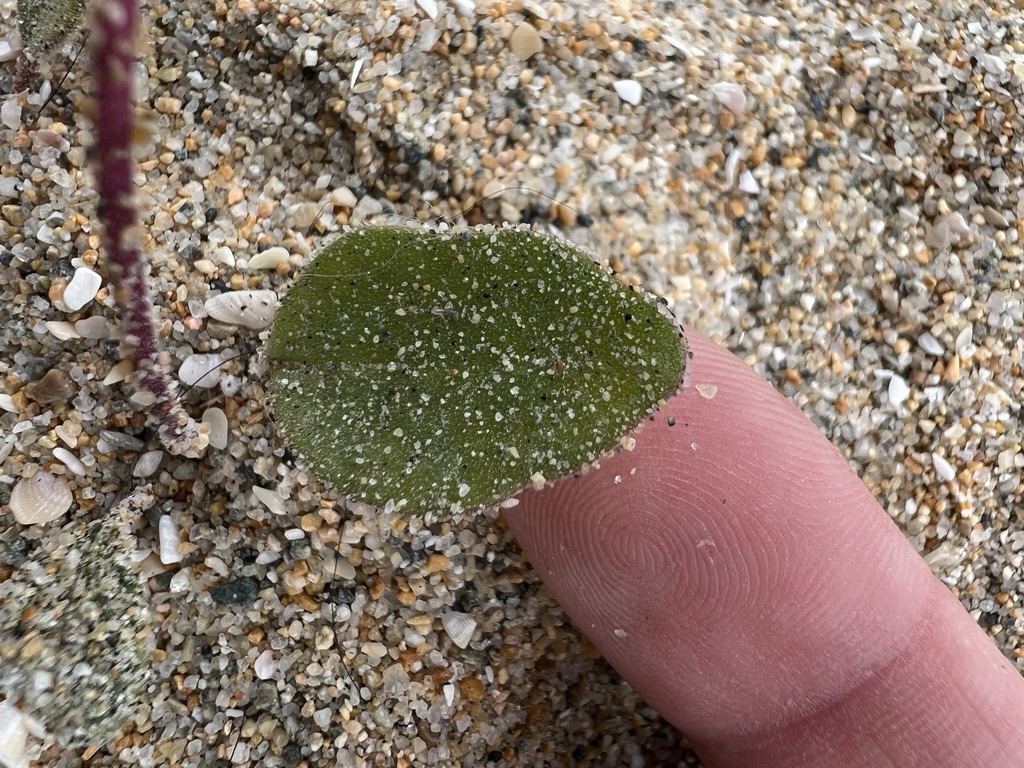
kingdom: Plantae
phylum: Tracheophyta
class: Magnoliopsida
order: Caryophyllales
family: Nyctaginaceae
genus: Abronia
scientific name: Abronia umbellata
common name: Sand-verbena
